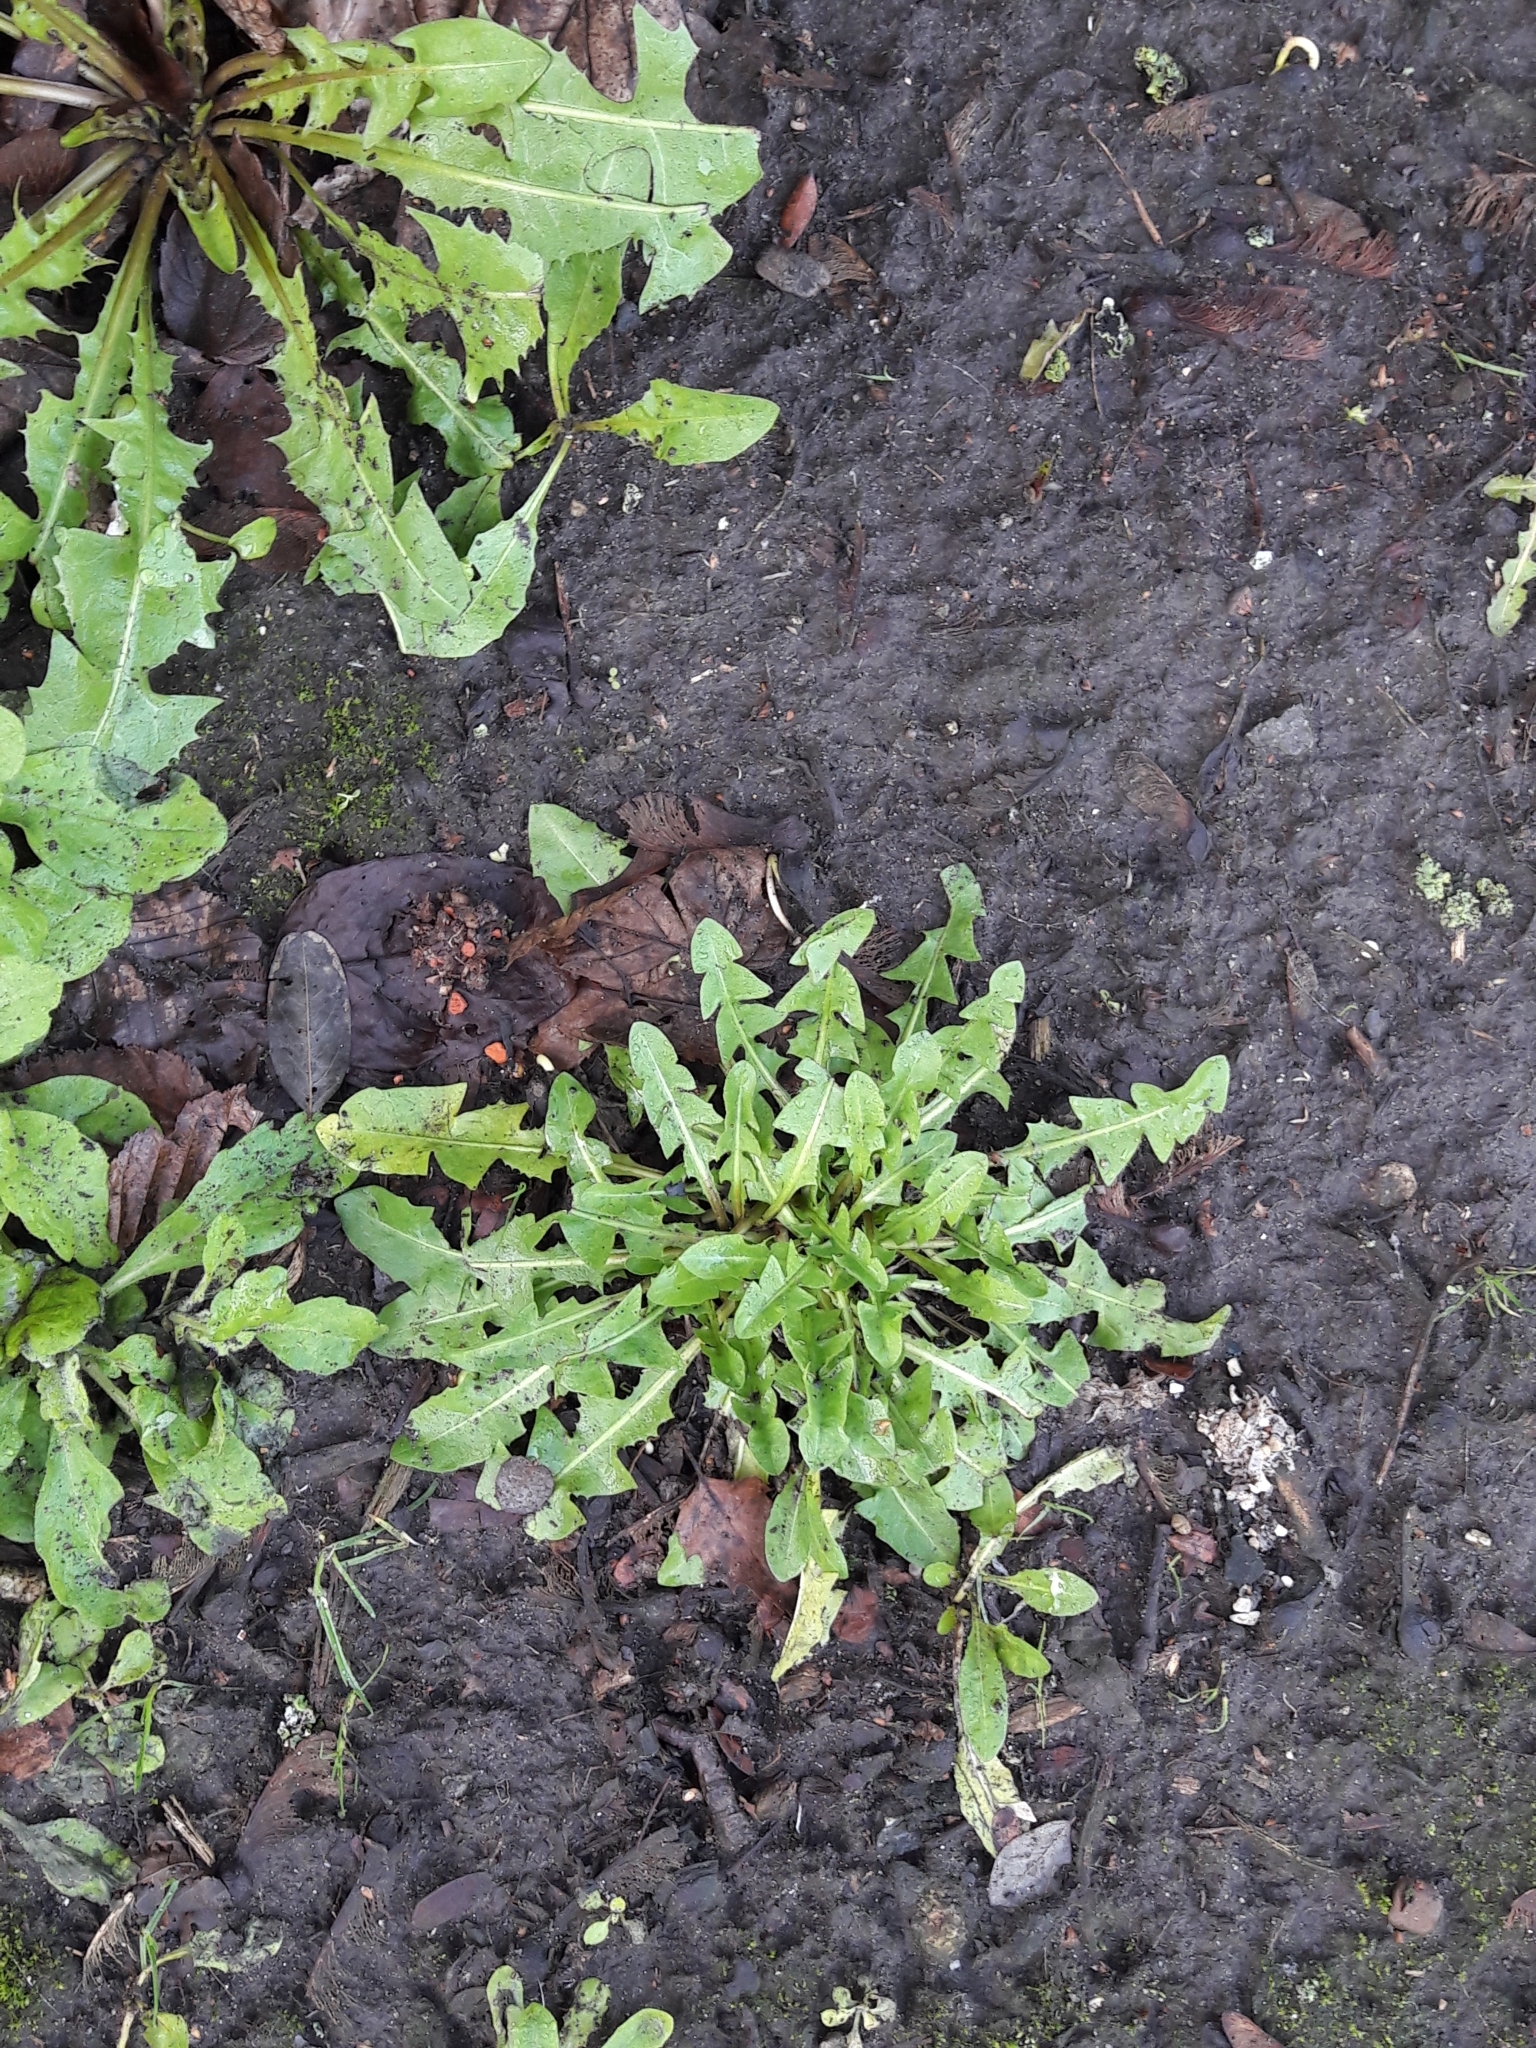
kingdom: Plantae
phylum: Tracheophyta
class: Magnoliopsida
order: Asterales
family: Asteraceae
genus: Taraxacum
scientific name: Taraxacum officinale
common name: Common dandelion
